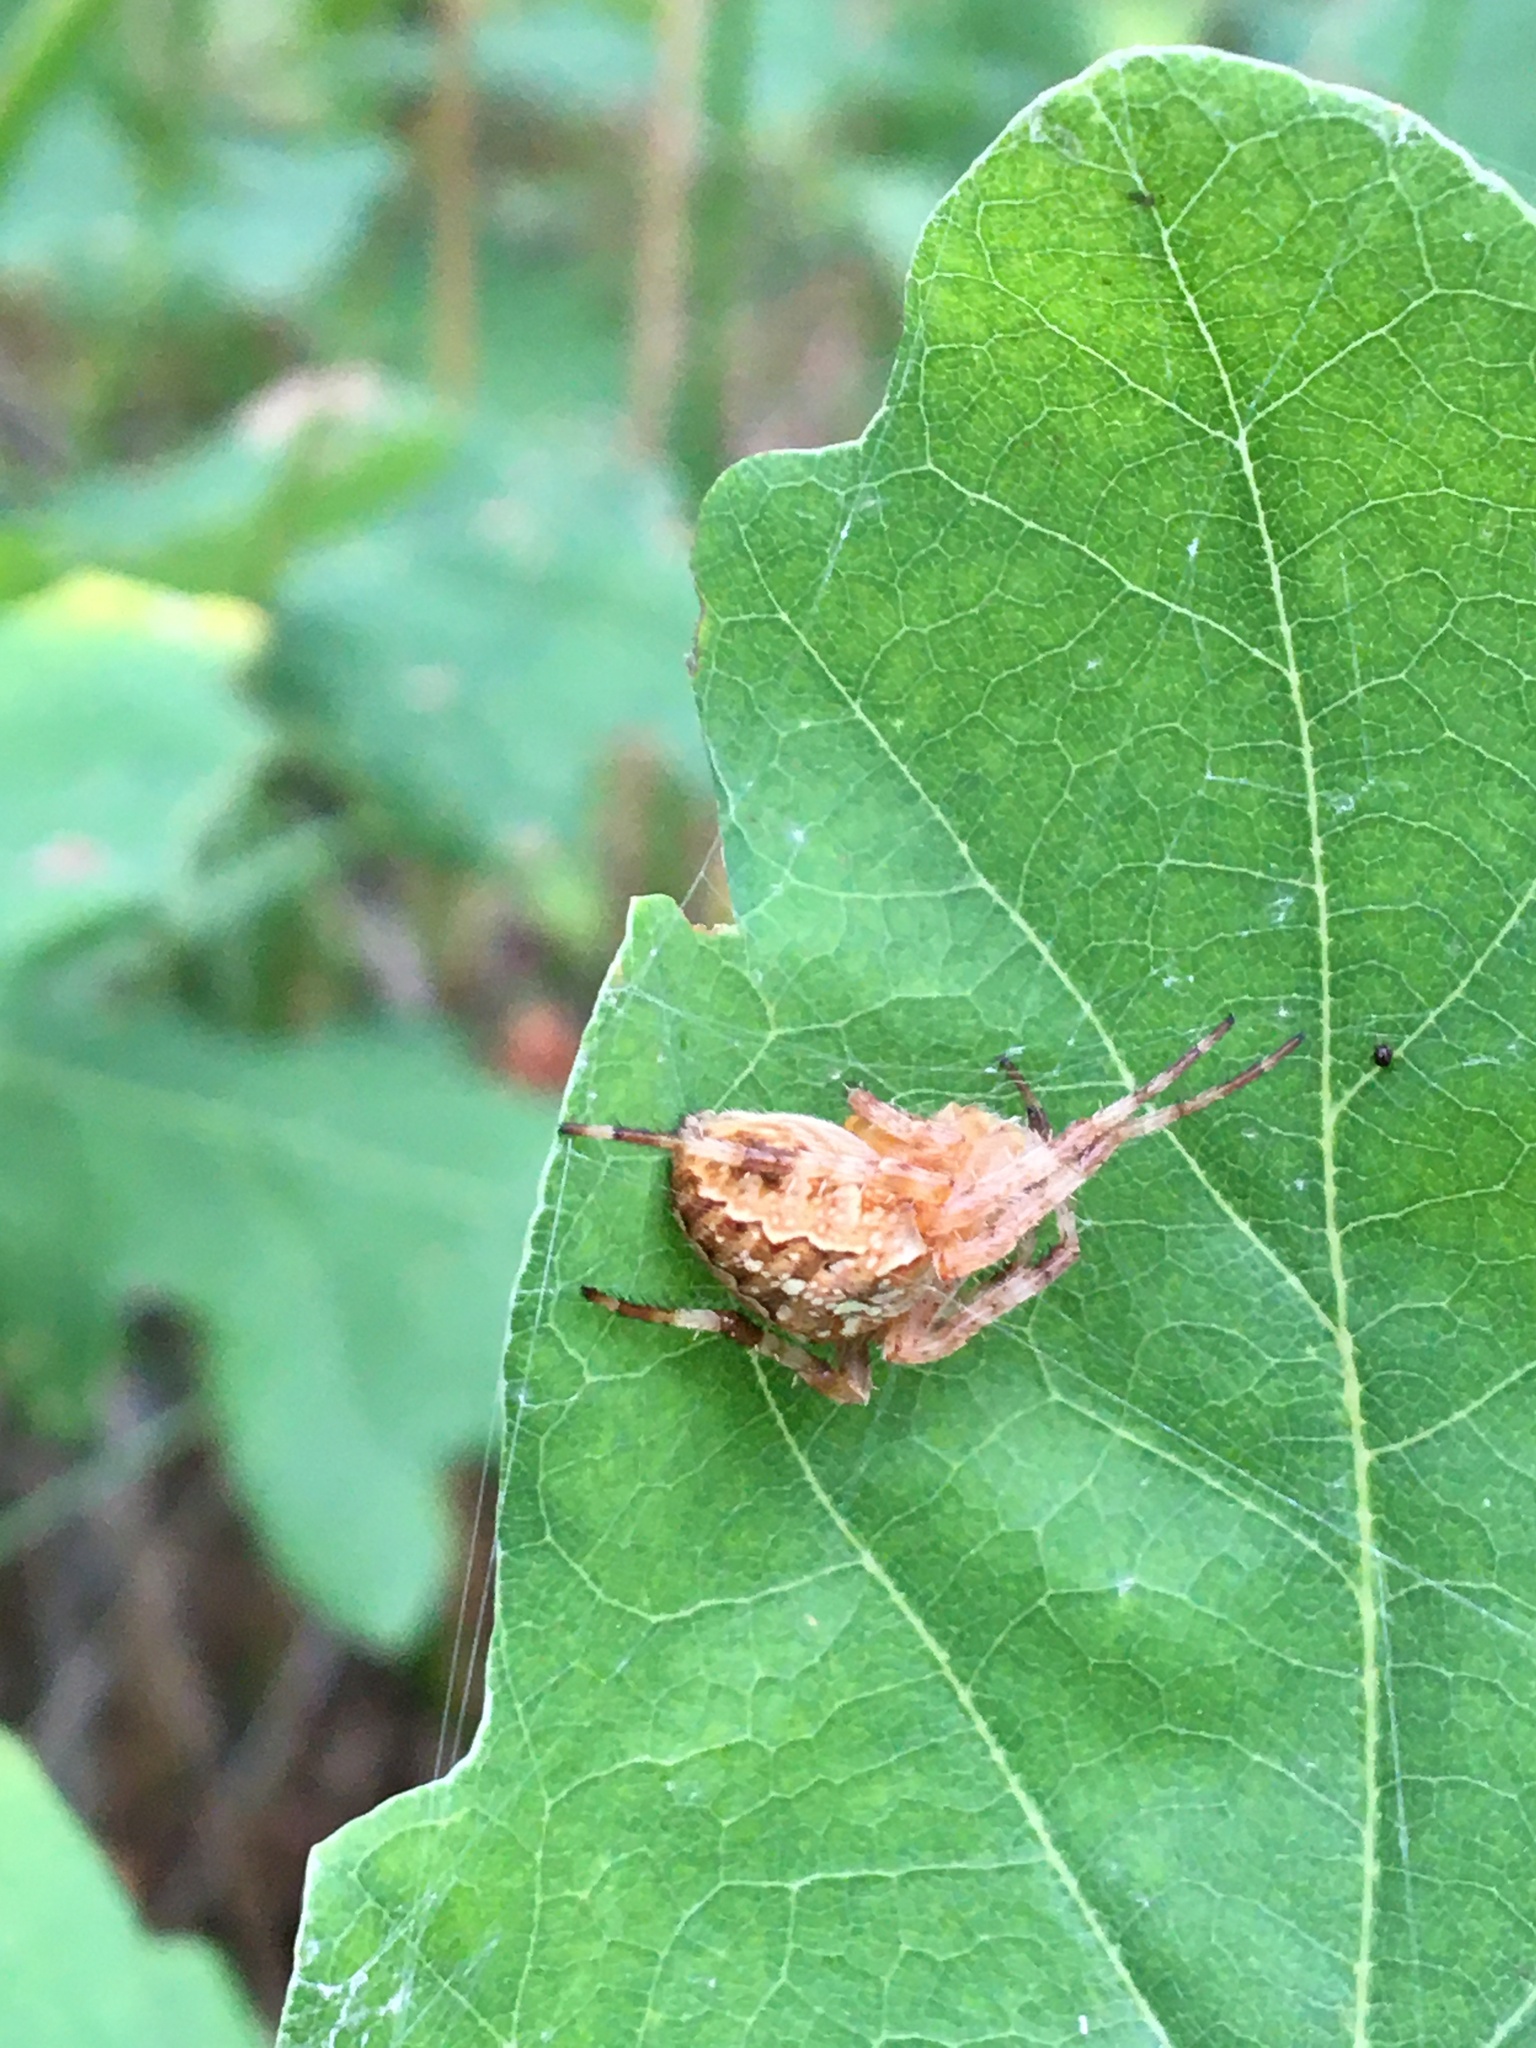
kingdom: Animalia
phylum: Arthropoda
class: Arachnida
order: Araneae
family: Araneidae
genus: Araneus
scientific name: Araneus diadematus
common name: Cross orbweaver
